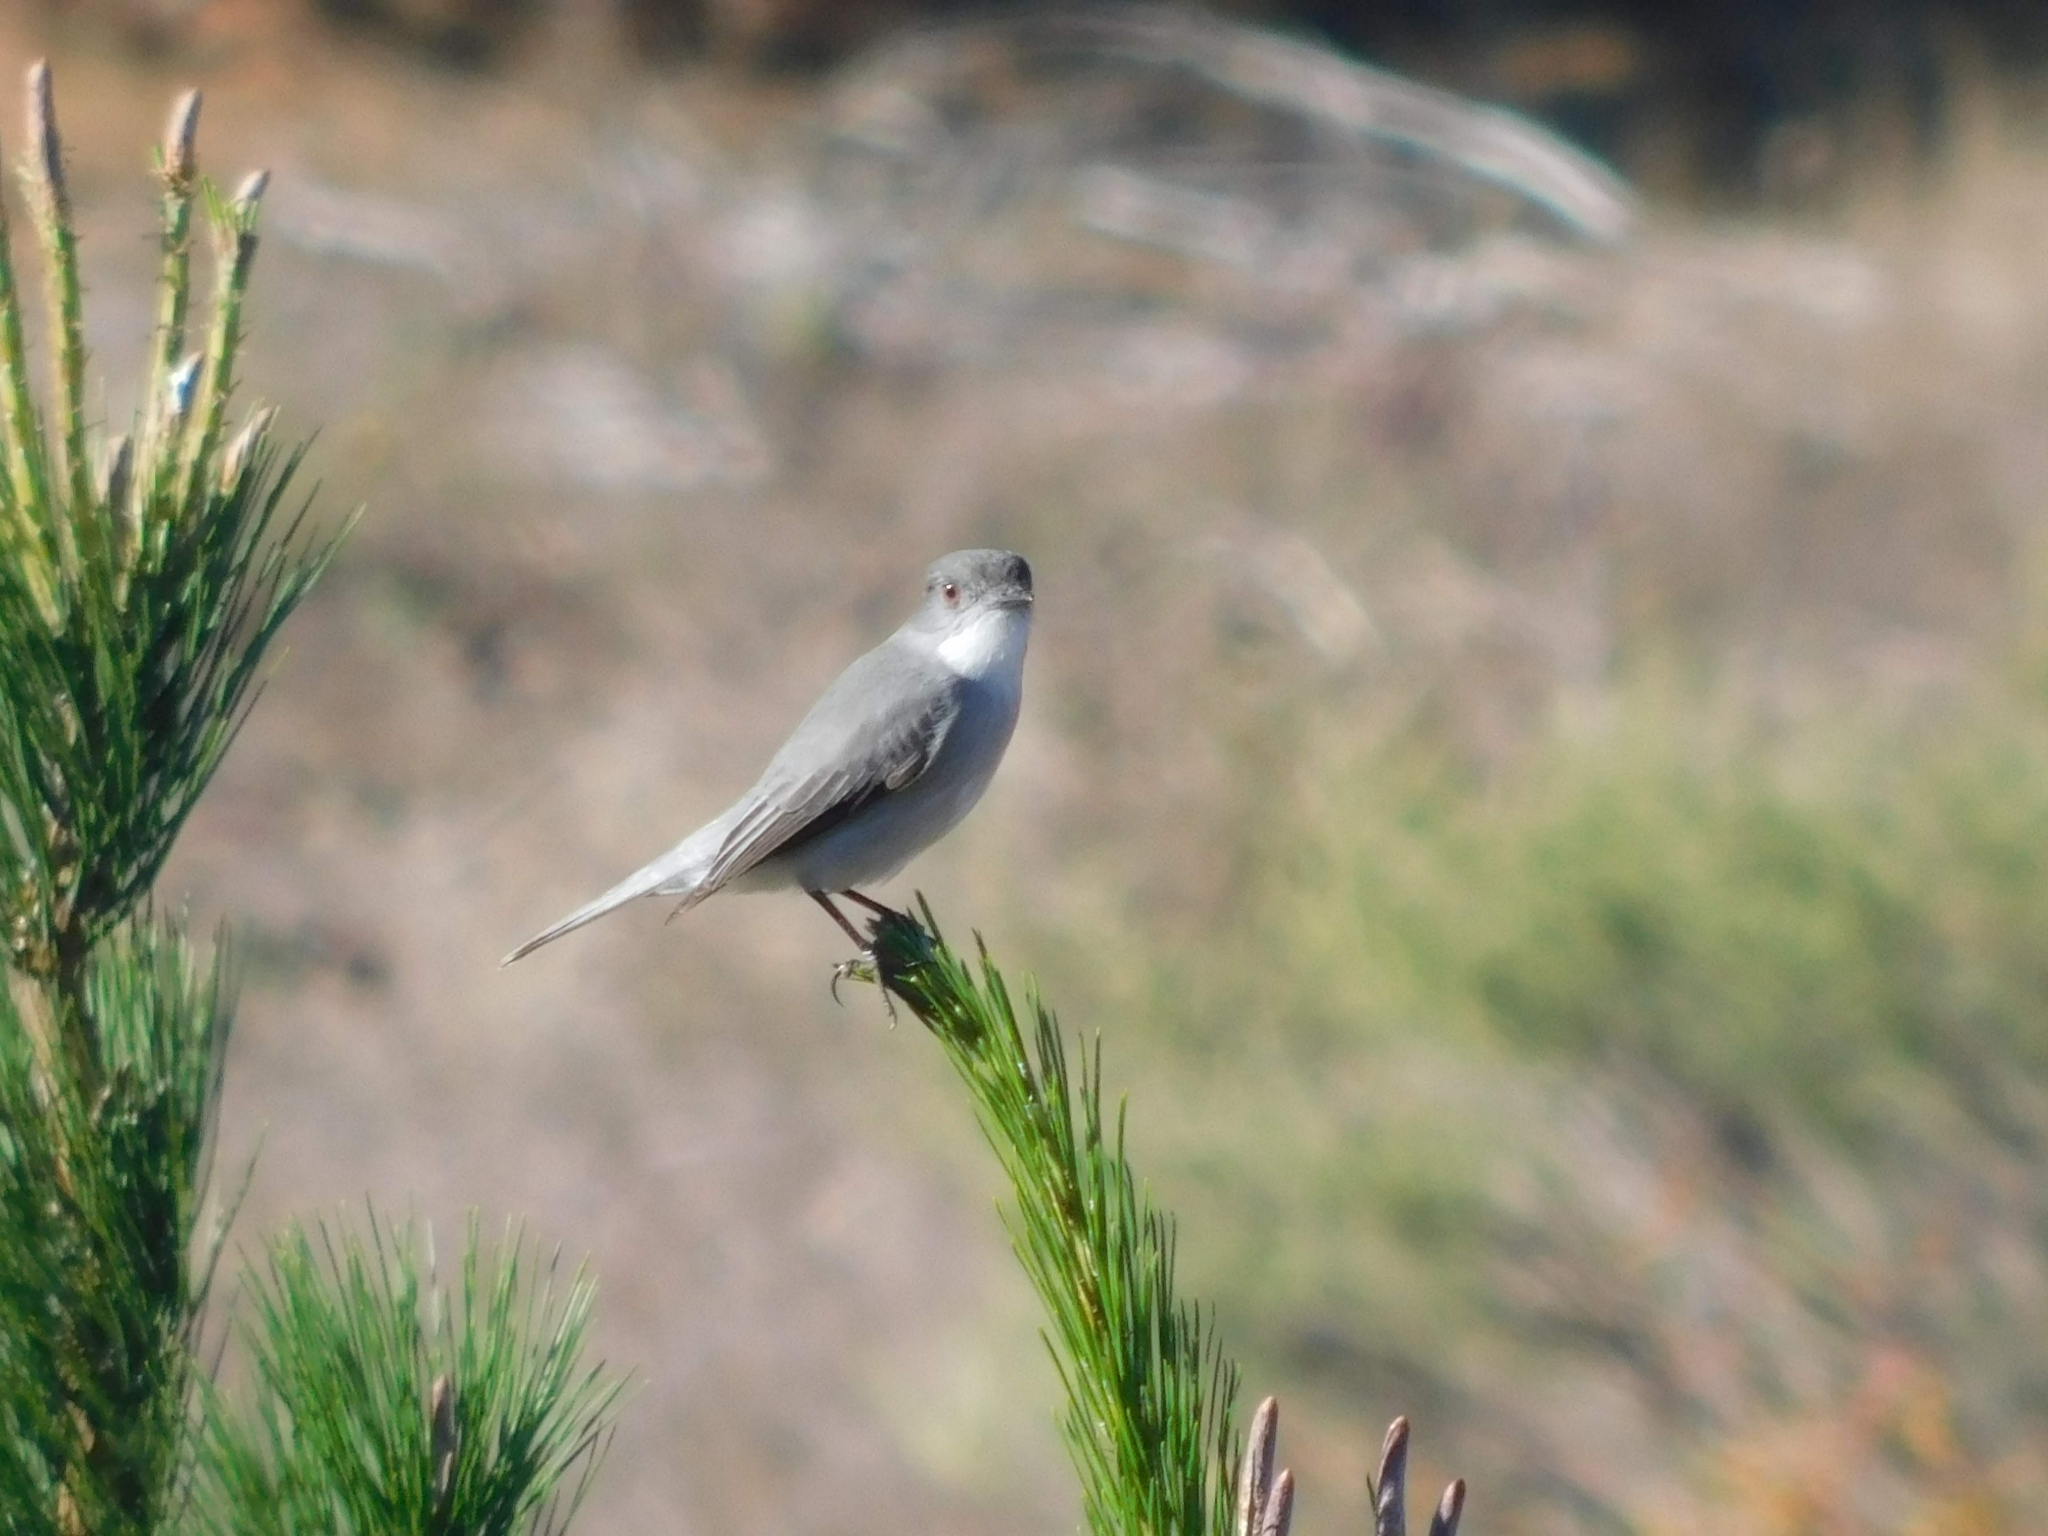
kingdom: Animalia
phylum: Chordata
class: Aves
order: Passeriformes
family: Tyrannidae
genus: Xolmis
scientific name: Xolmis pyrope
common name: Fire-eyed diucon
